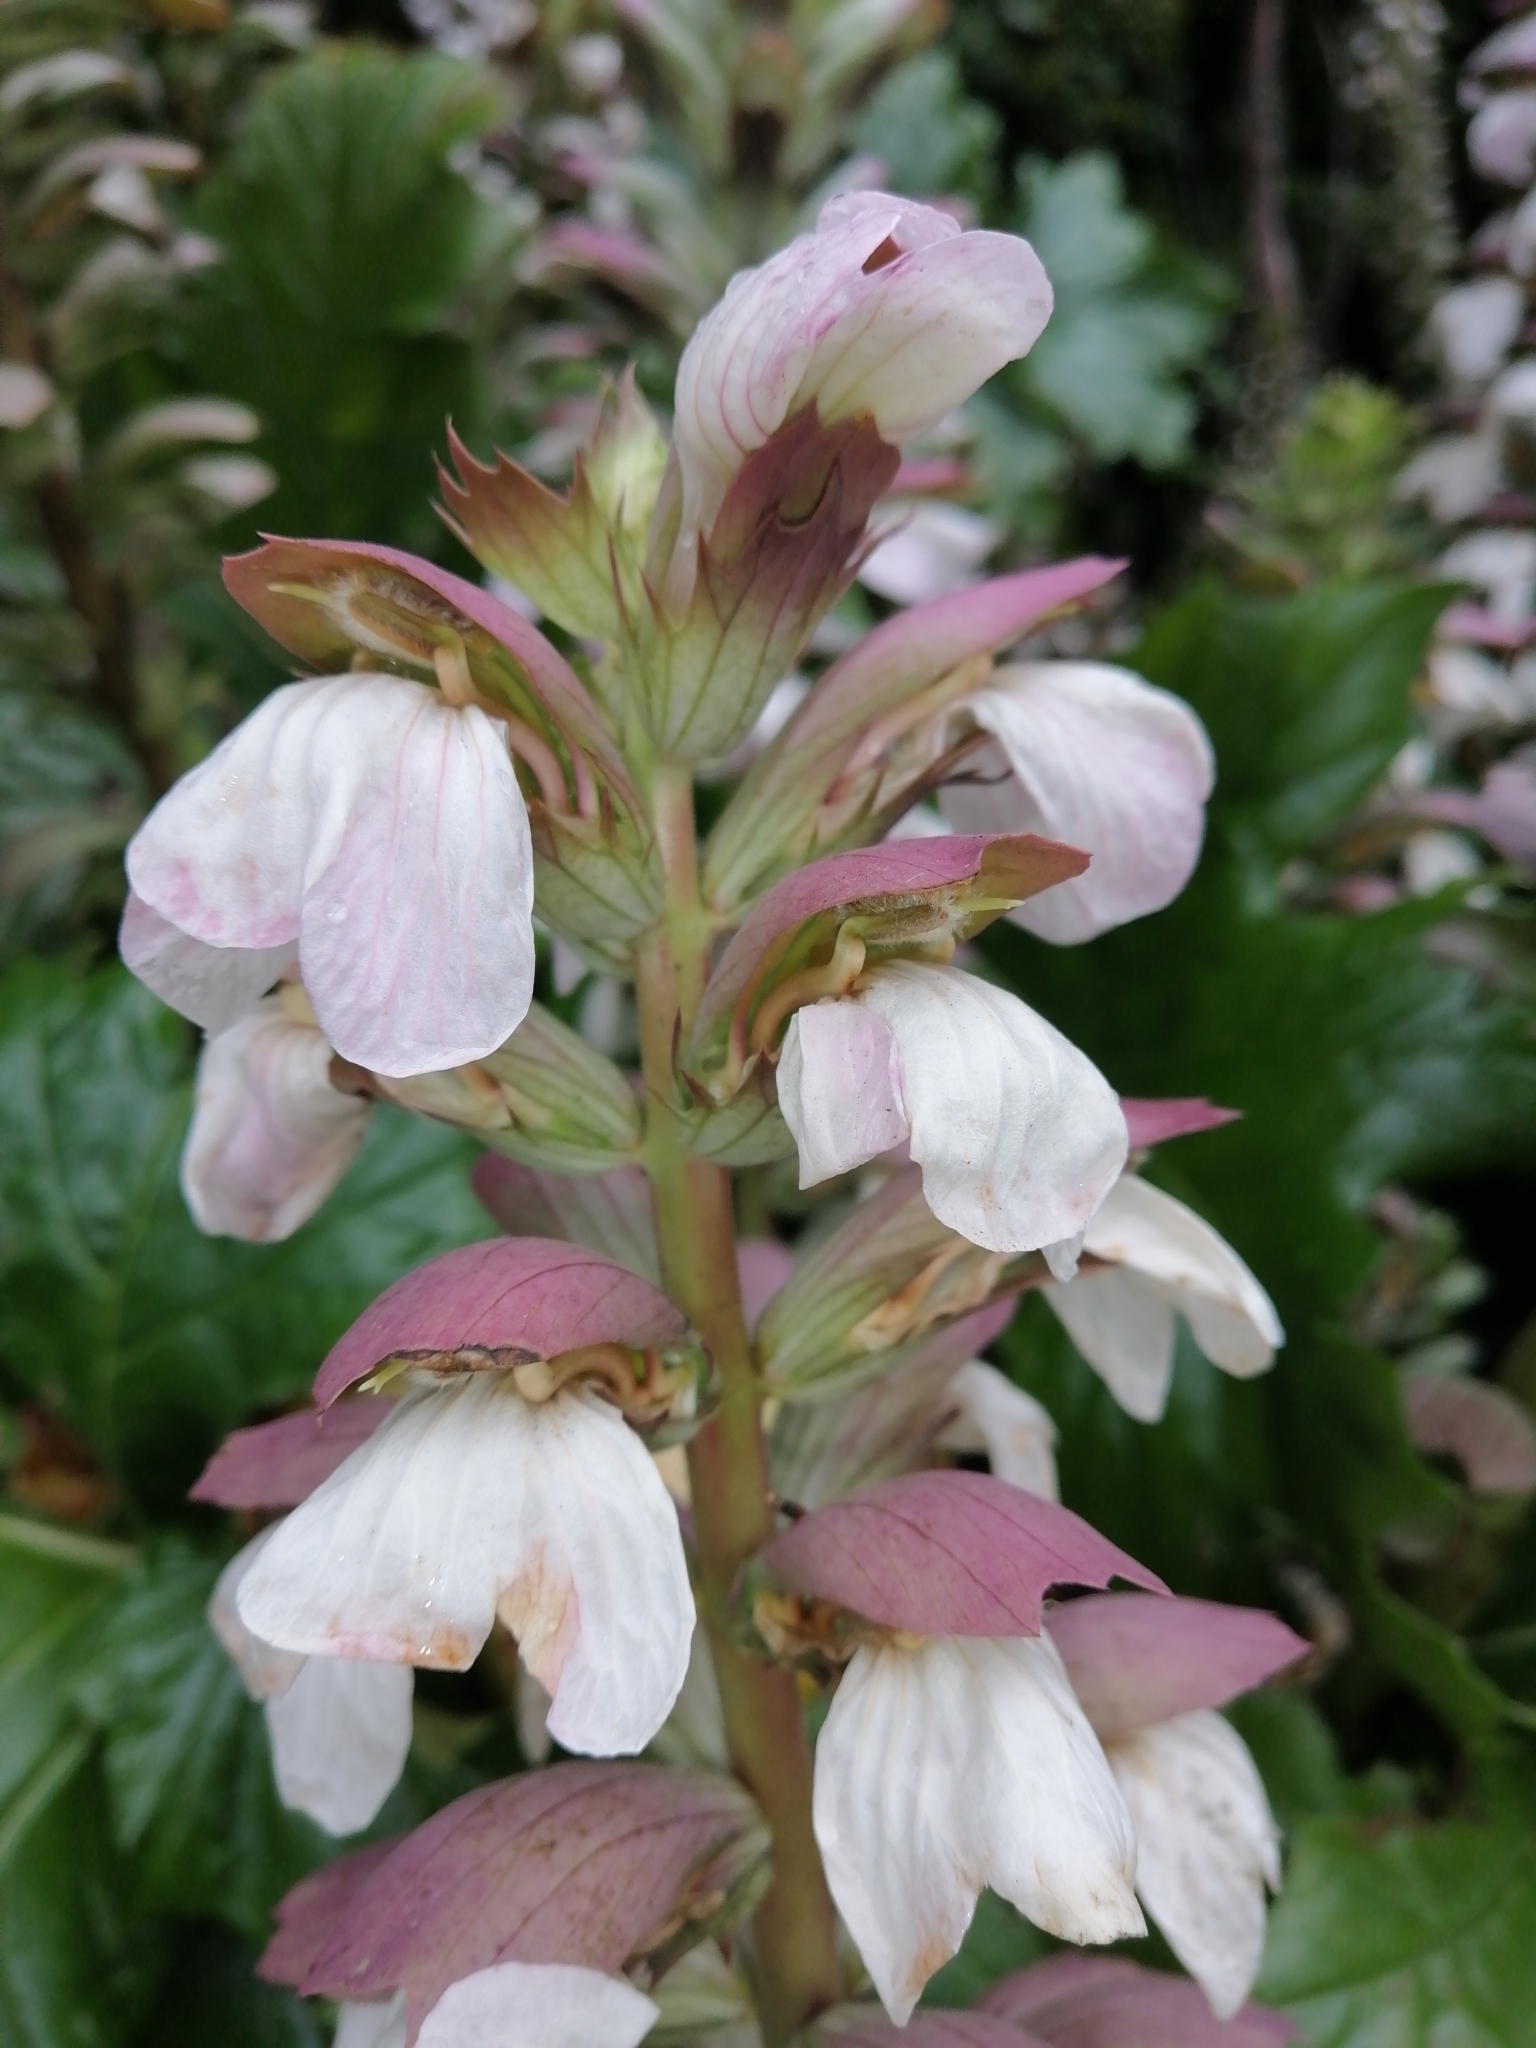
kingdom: Plantae
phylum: Tracheophyta
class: Magnoliopsida
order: Lamiales
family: Acanthaceae
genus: Acanthus
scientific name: Acanthus mollis
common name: Bear's-breech
